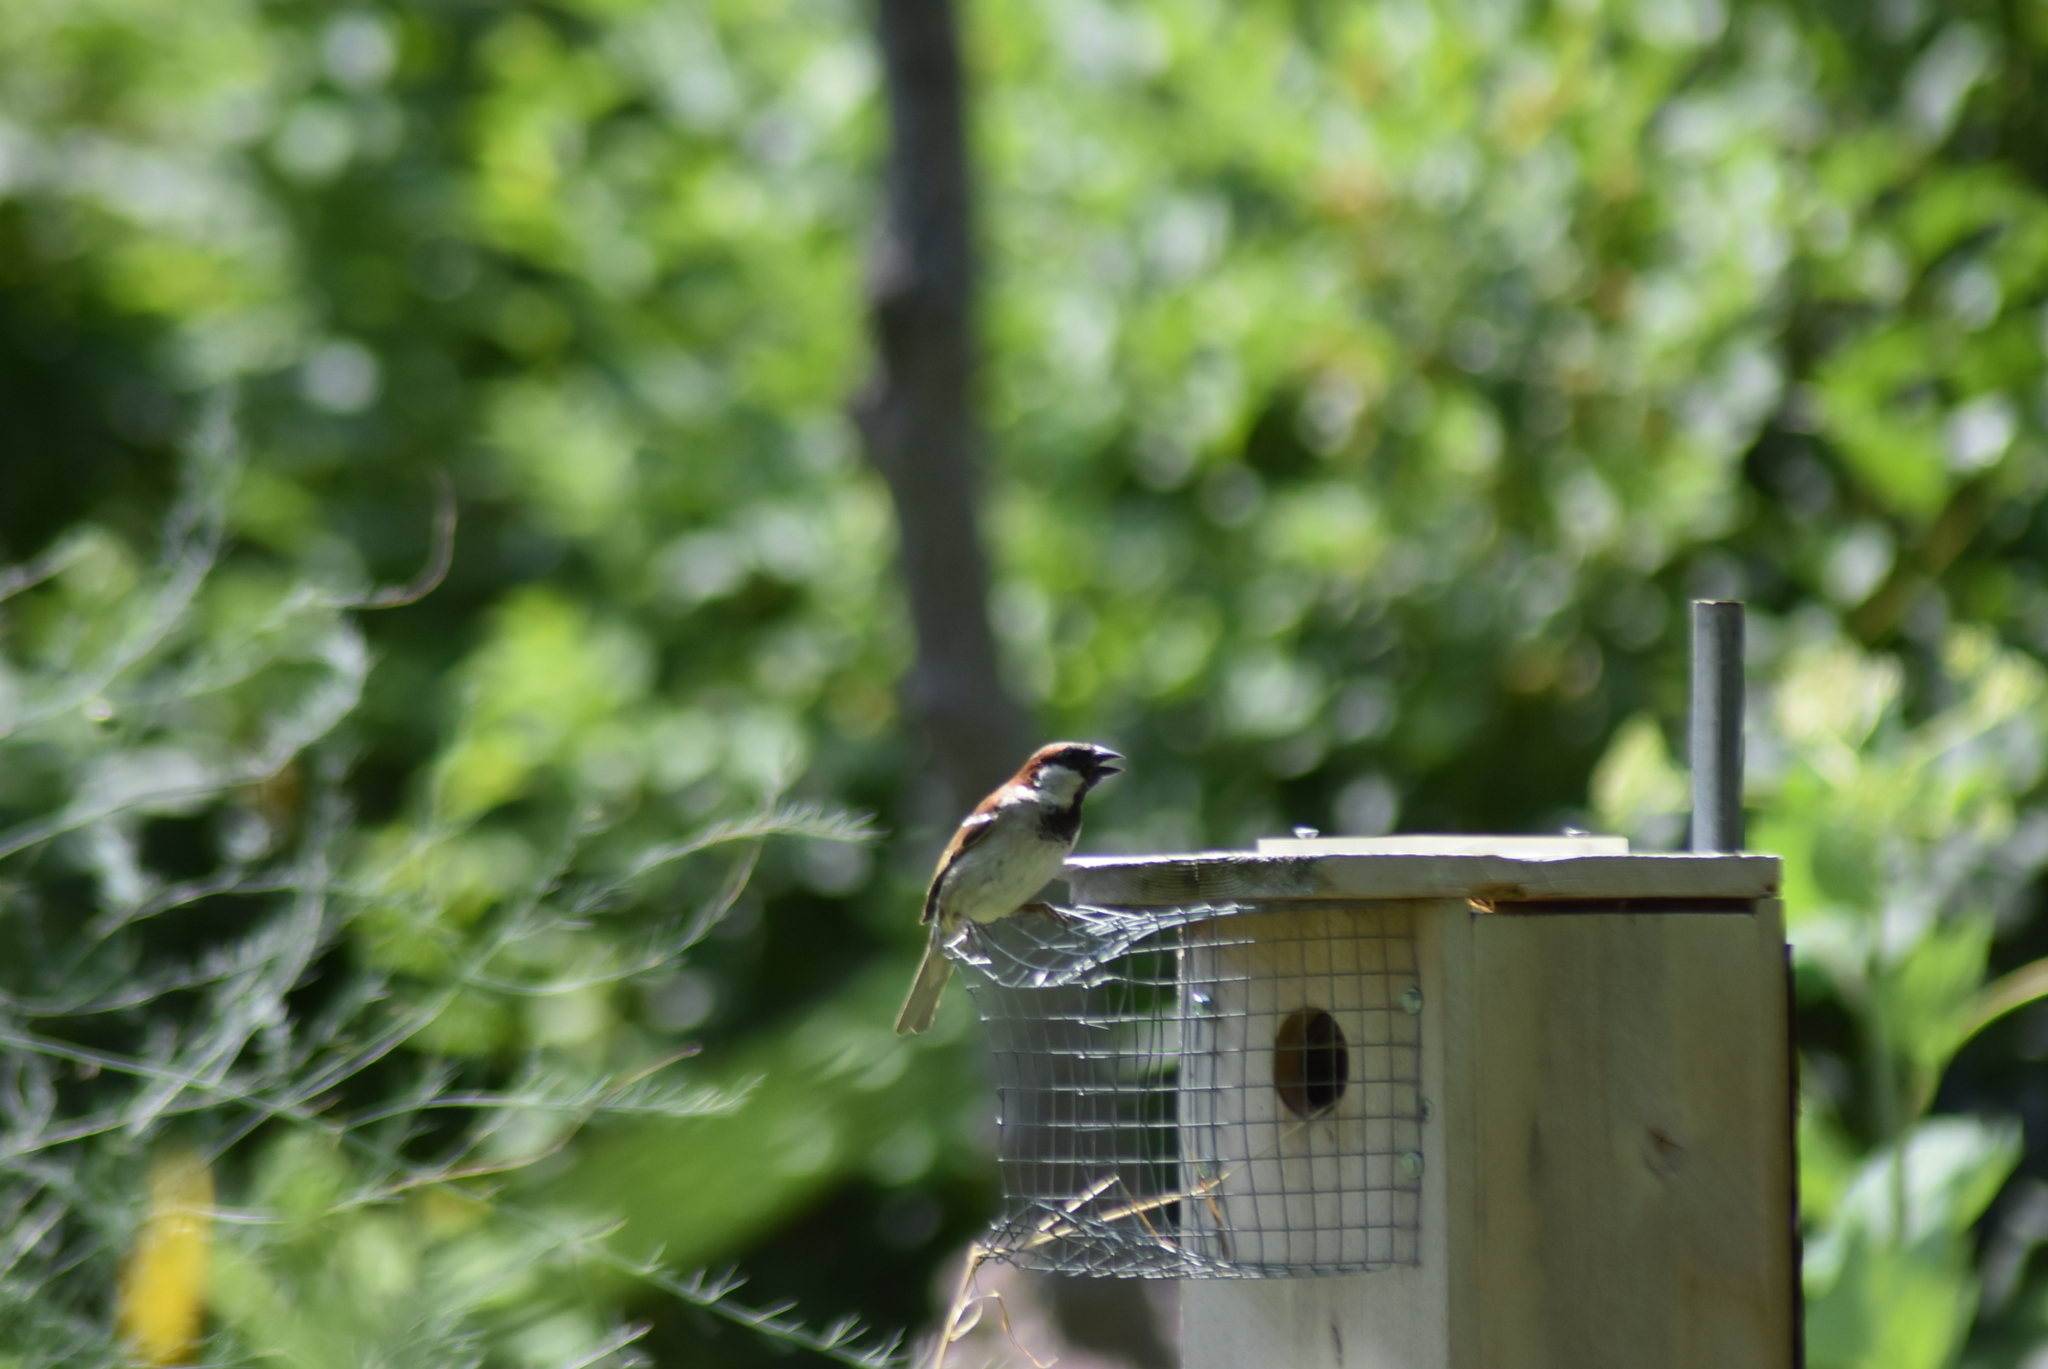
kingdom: Animalia
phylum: Chordata
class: Aves
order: Passeriformes
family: Passeridae
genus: Passer
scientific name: Passer domesticus
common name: House sparrow
